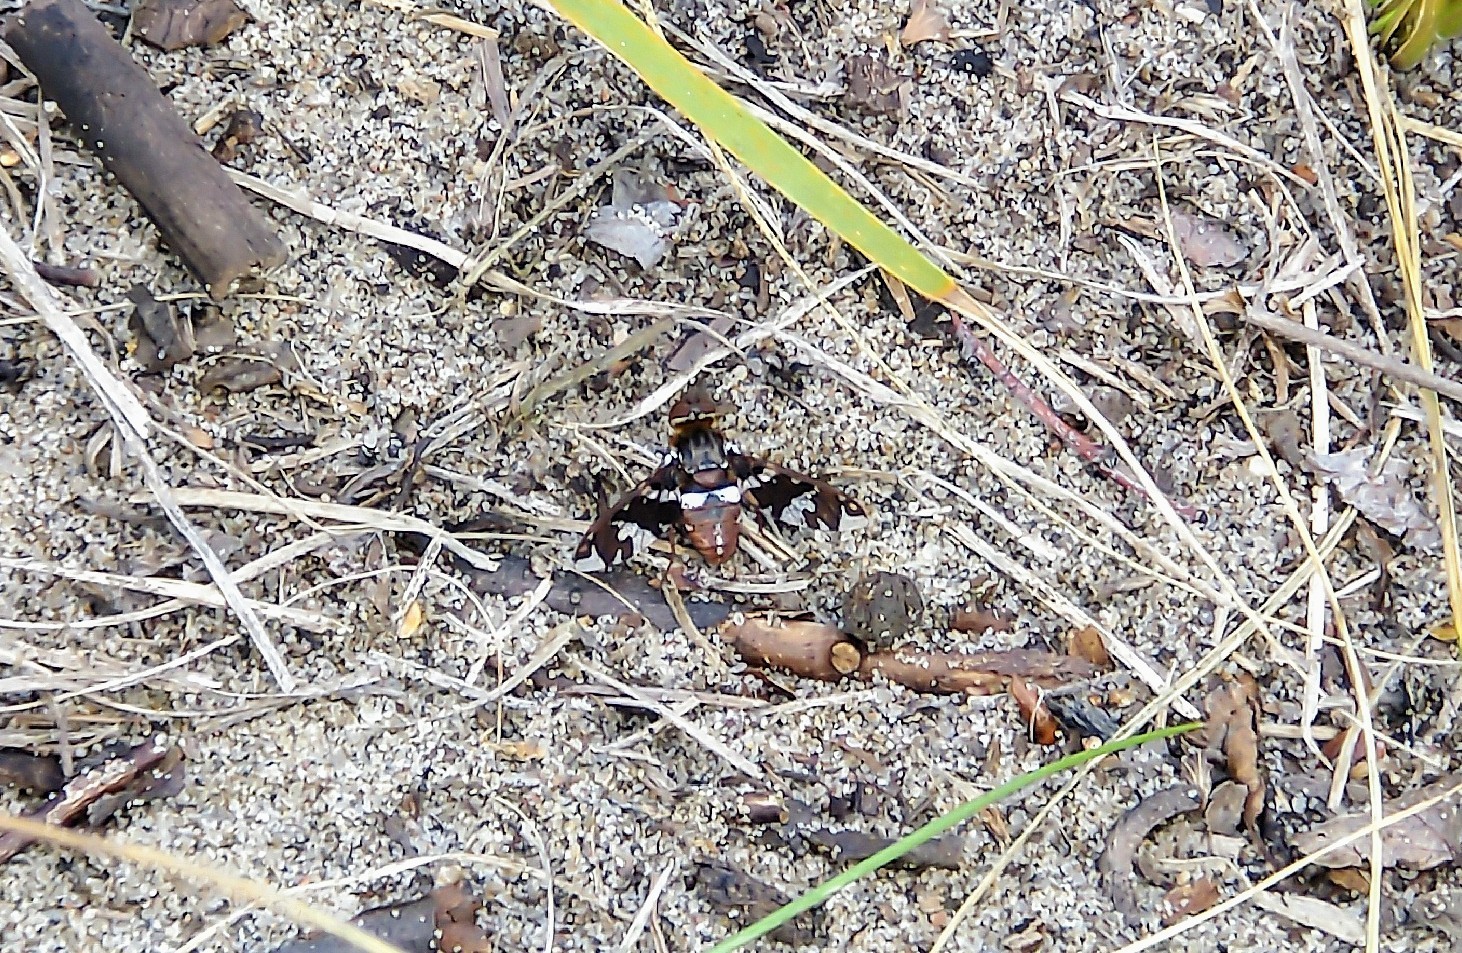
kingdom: Animalia
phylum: Arthropoda
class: Insecta
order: Diptera
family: Bombyliidae
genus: Exoprosopa
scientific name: Exoprosopa caliptera
